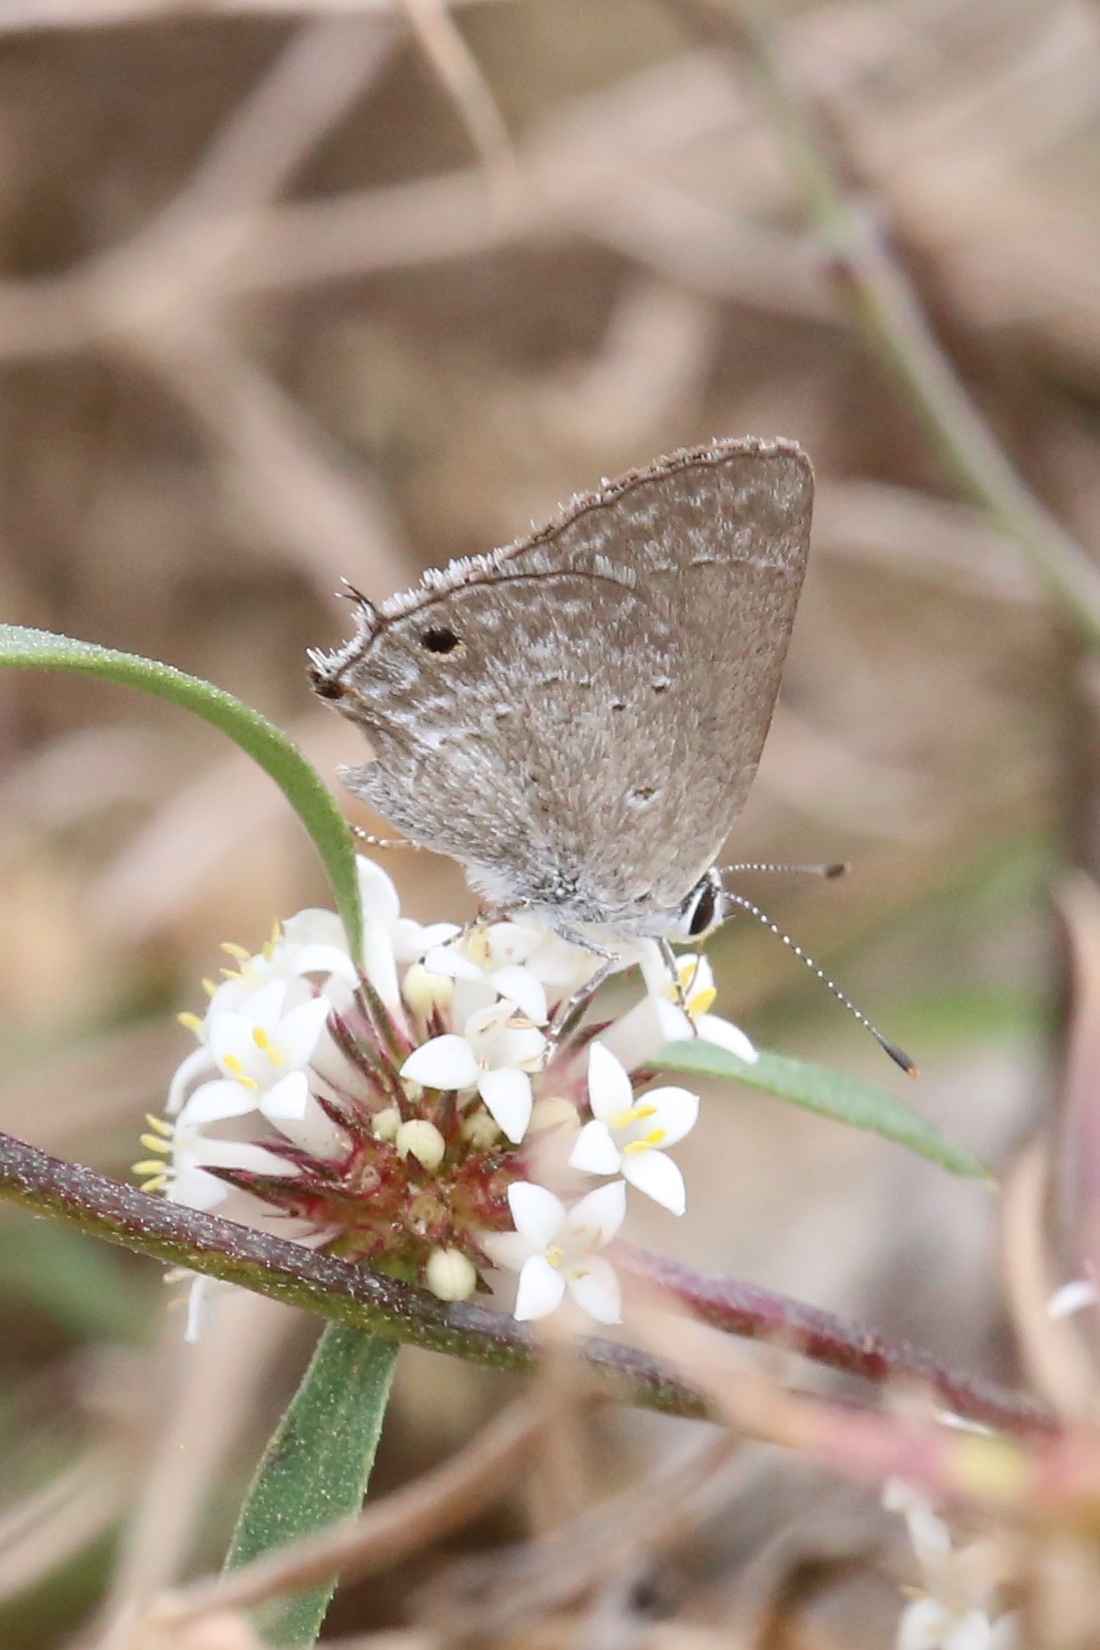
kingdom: Animalia
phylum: Arthropoda
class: Insecta
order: Lepidoptera
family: Lycaenidae
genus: Callicista
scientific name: Callicista columella
